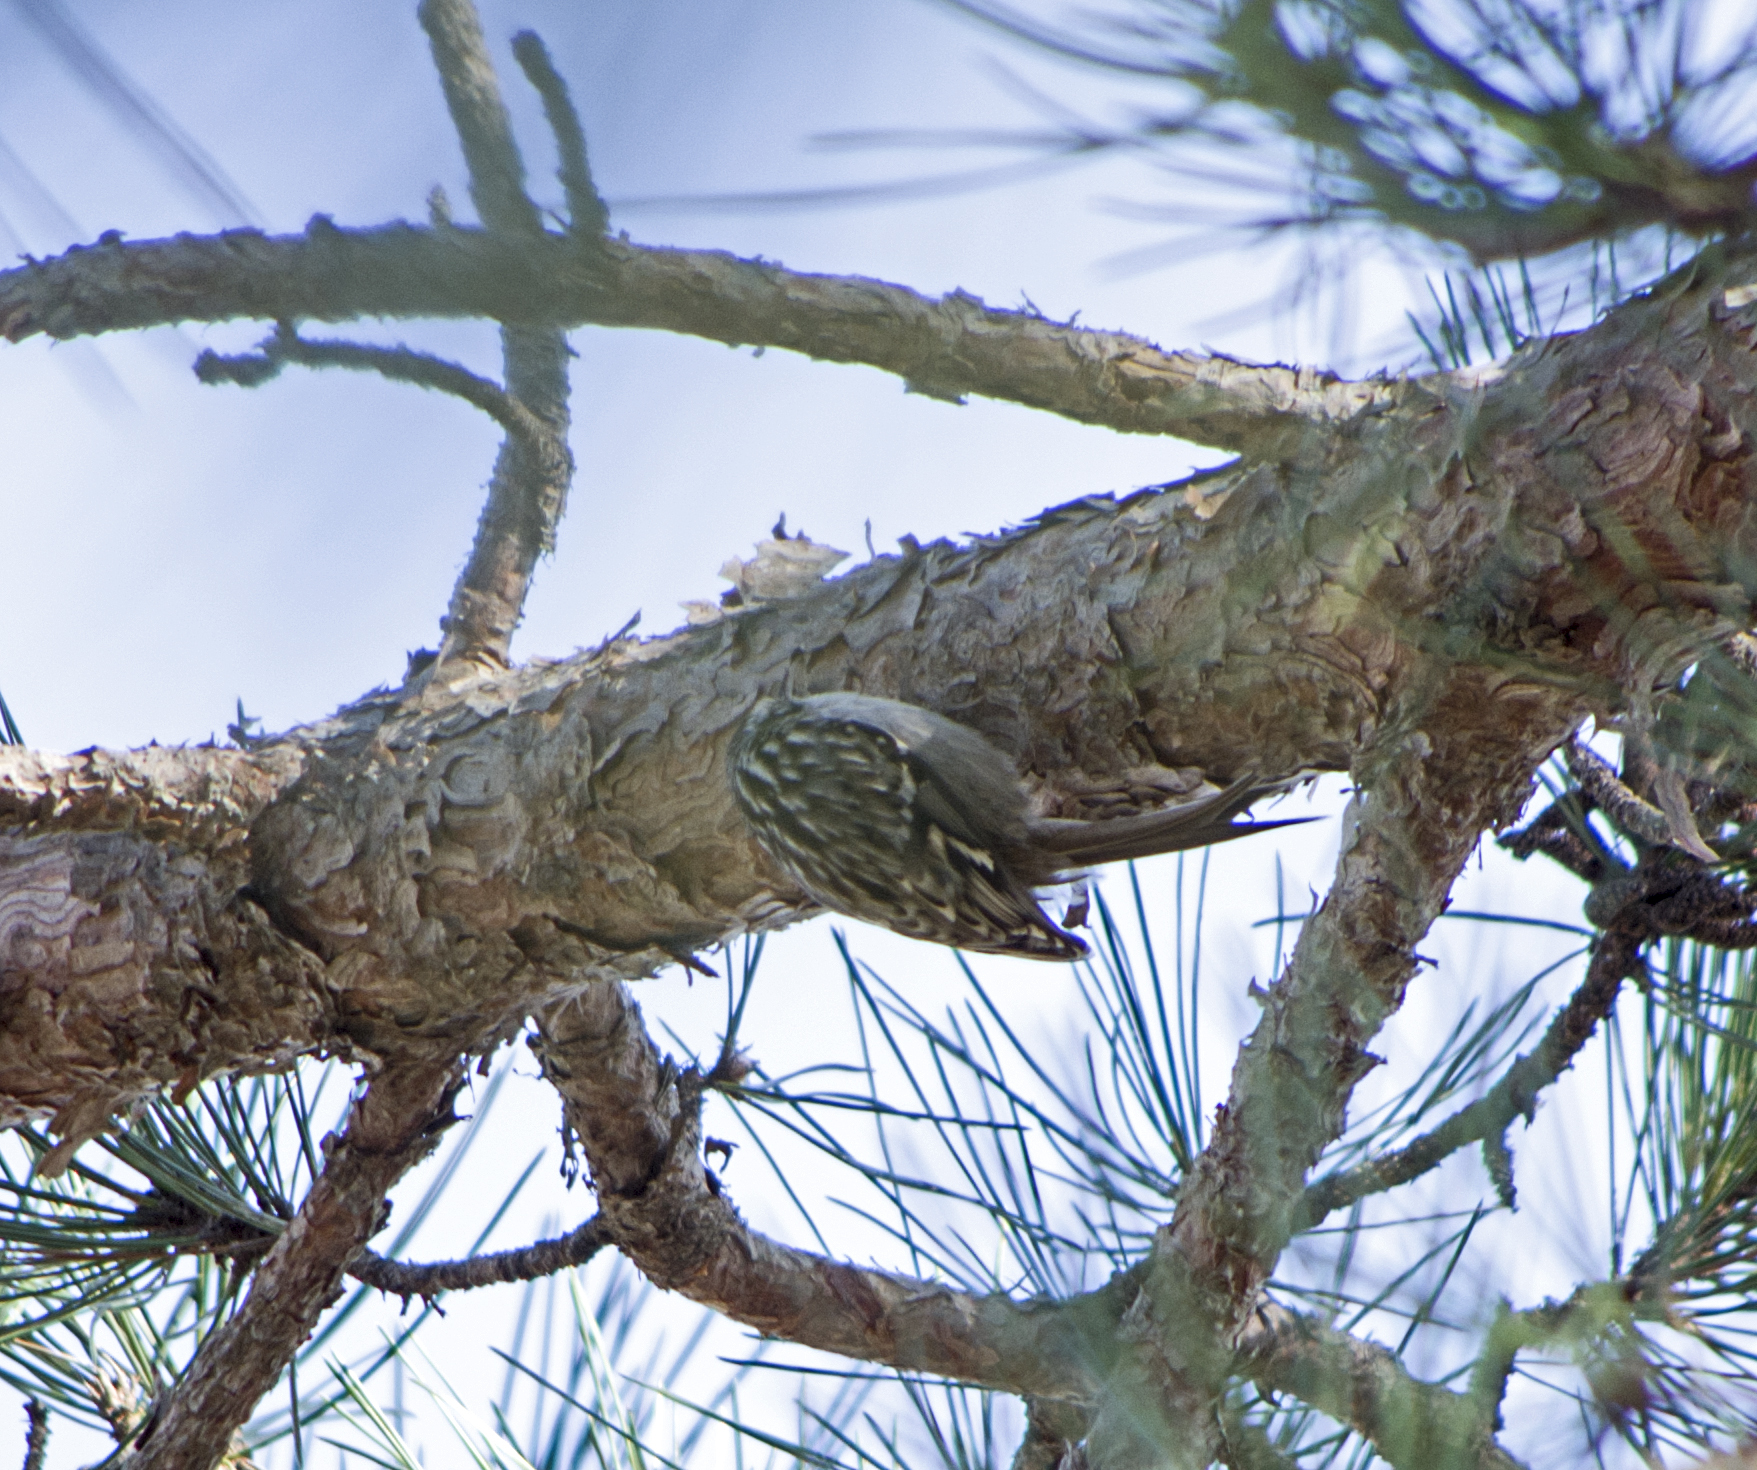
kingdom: Animalia
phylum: Chordata
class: Aves
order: Passeriformes
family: Certhiidae
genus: Certhia
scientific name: Certhia familiaris
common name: Eurasian treecreeper
